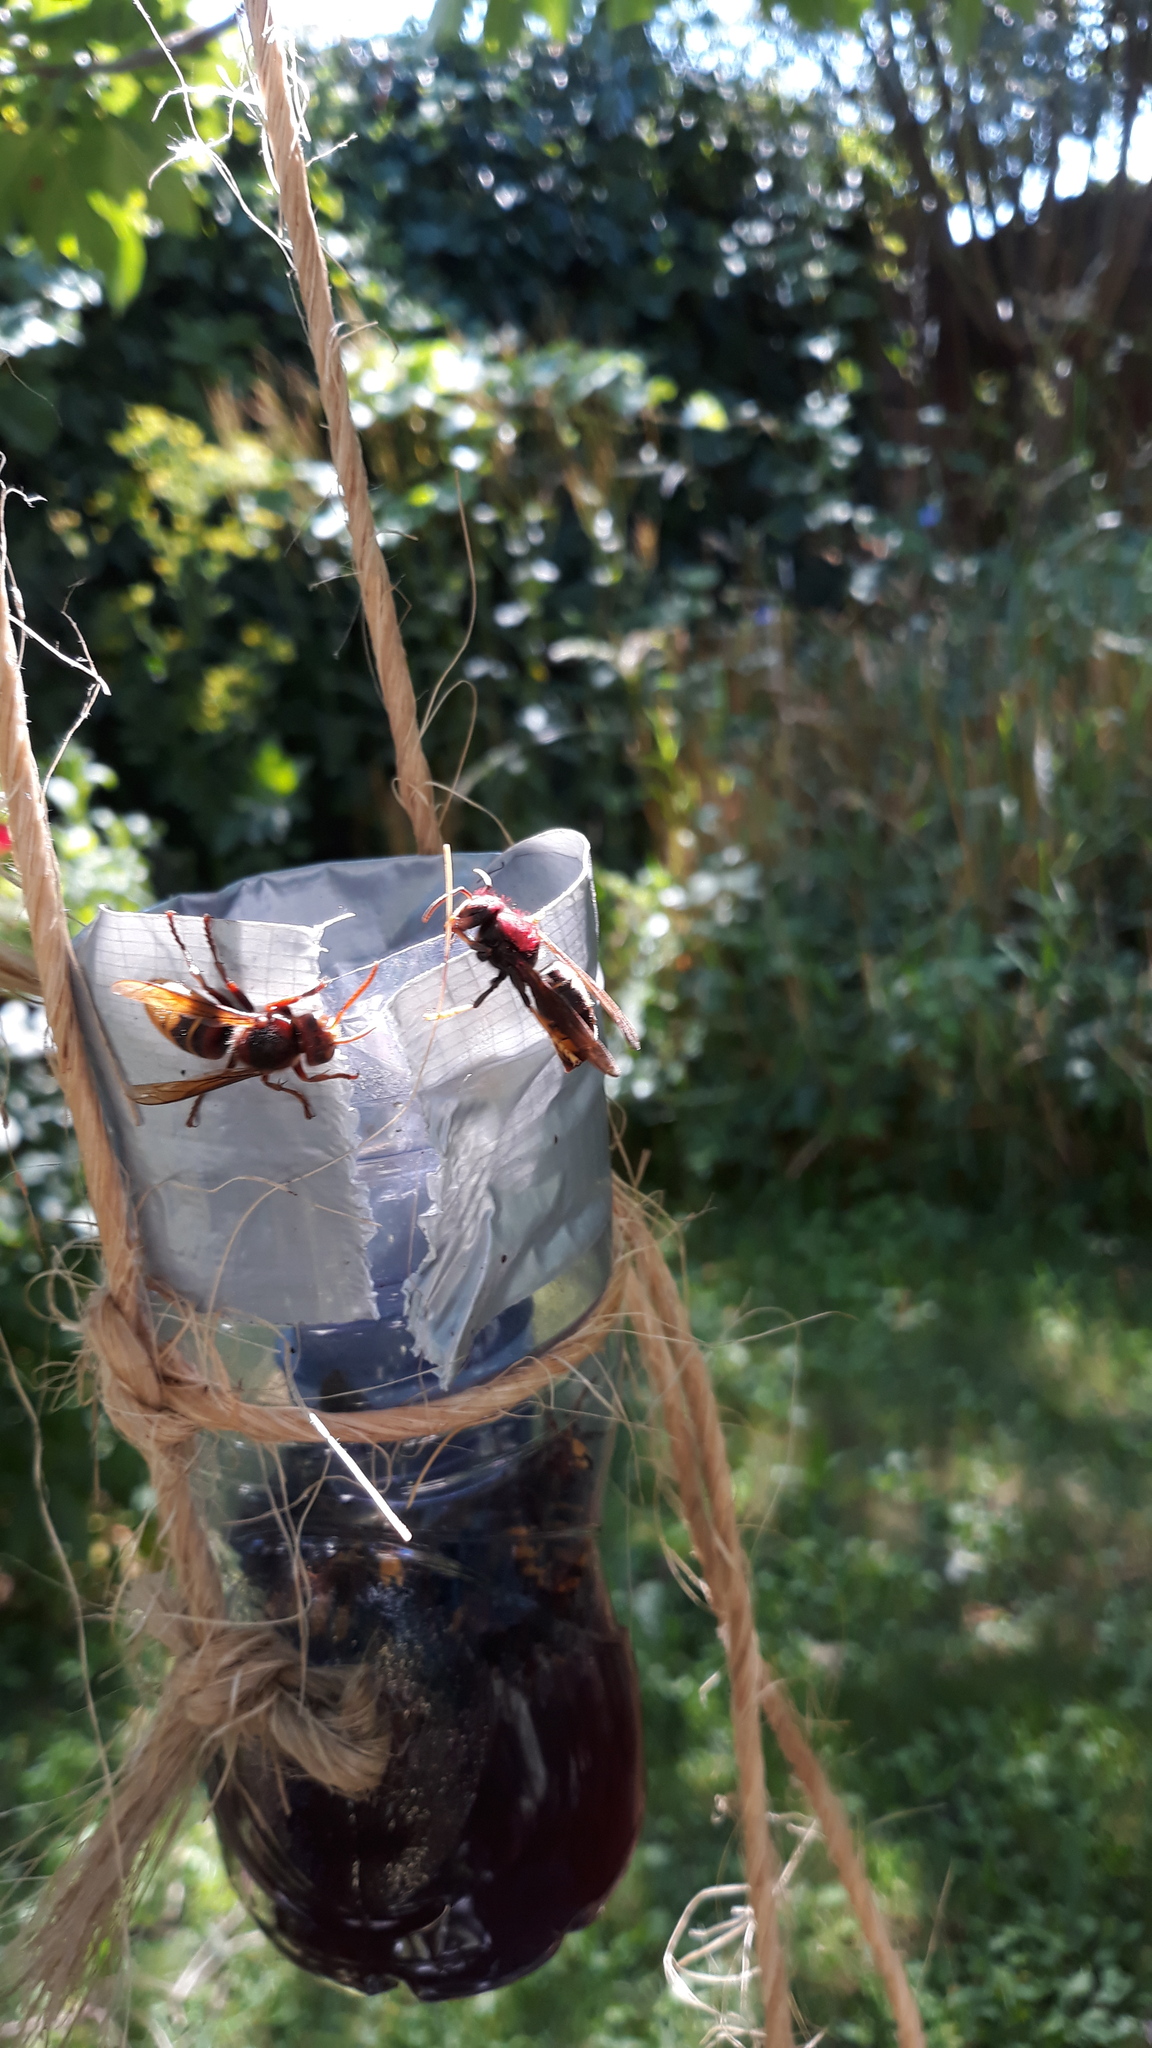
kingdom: Animalia
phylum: Arthropoda
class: Insecta
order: Hymenoptera
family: Vespidae
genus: Vespa
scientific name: Vespa velutina
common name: Asian hornet
